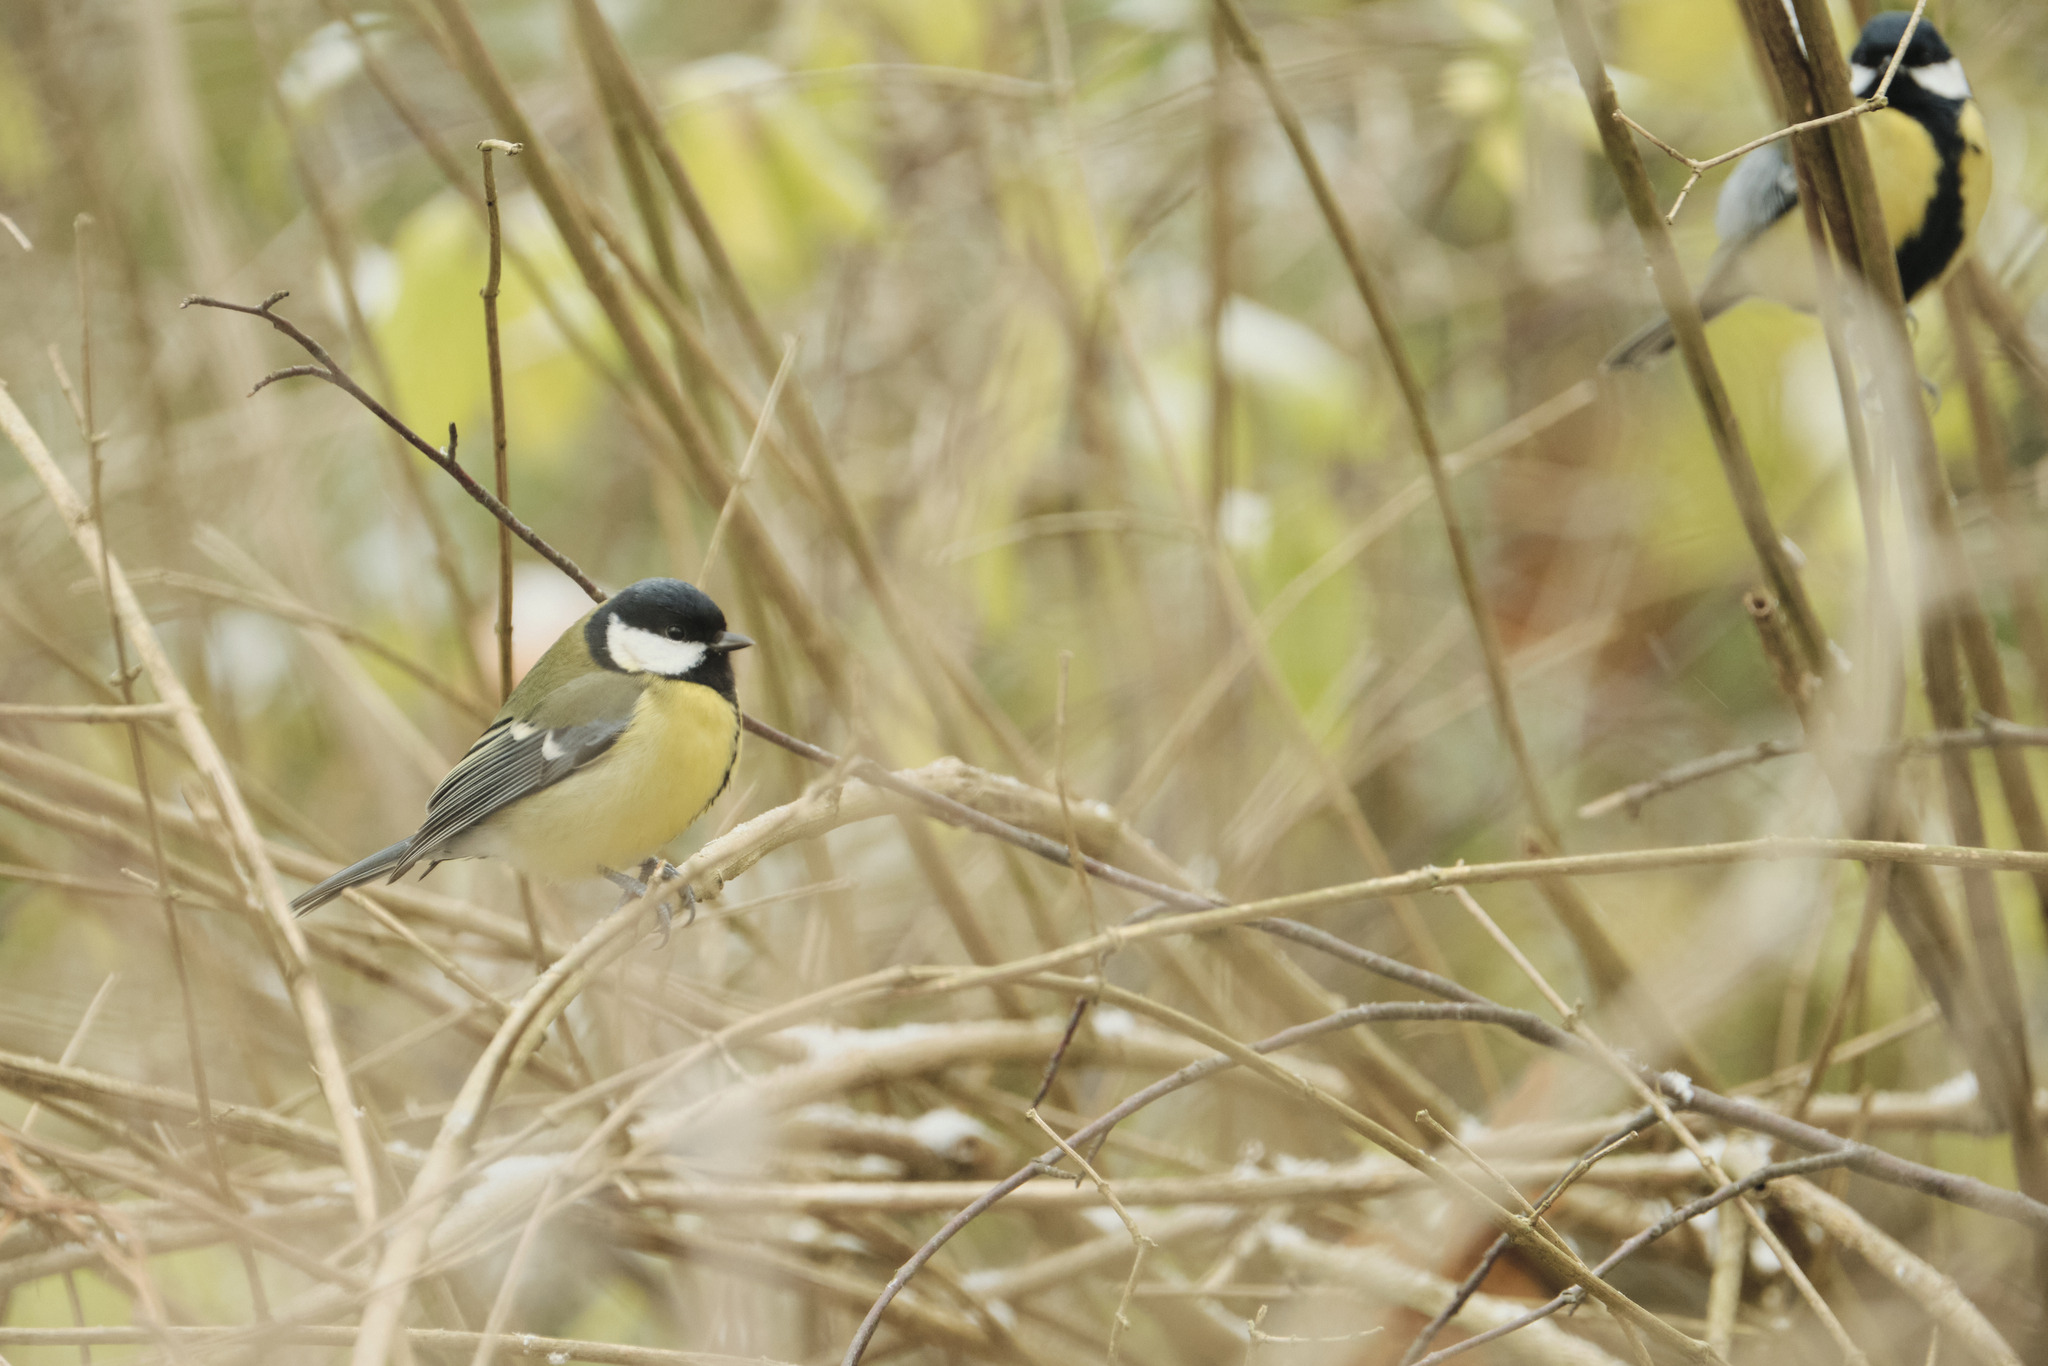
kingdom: Animalia
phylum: Chordata
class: Aves
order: Passeriformes
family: Paridae
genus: Parus
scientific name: Parus major
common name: Great tit
